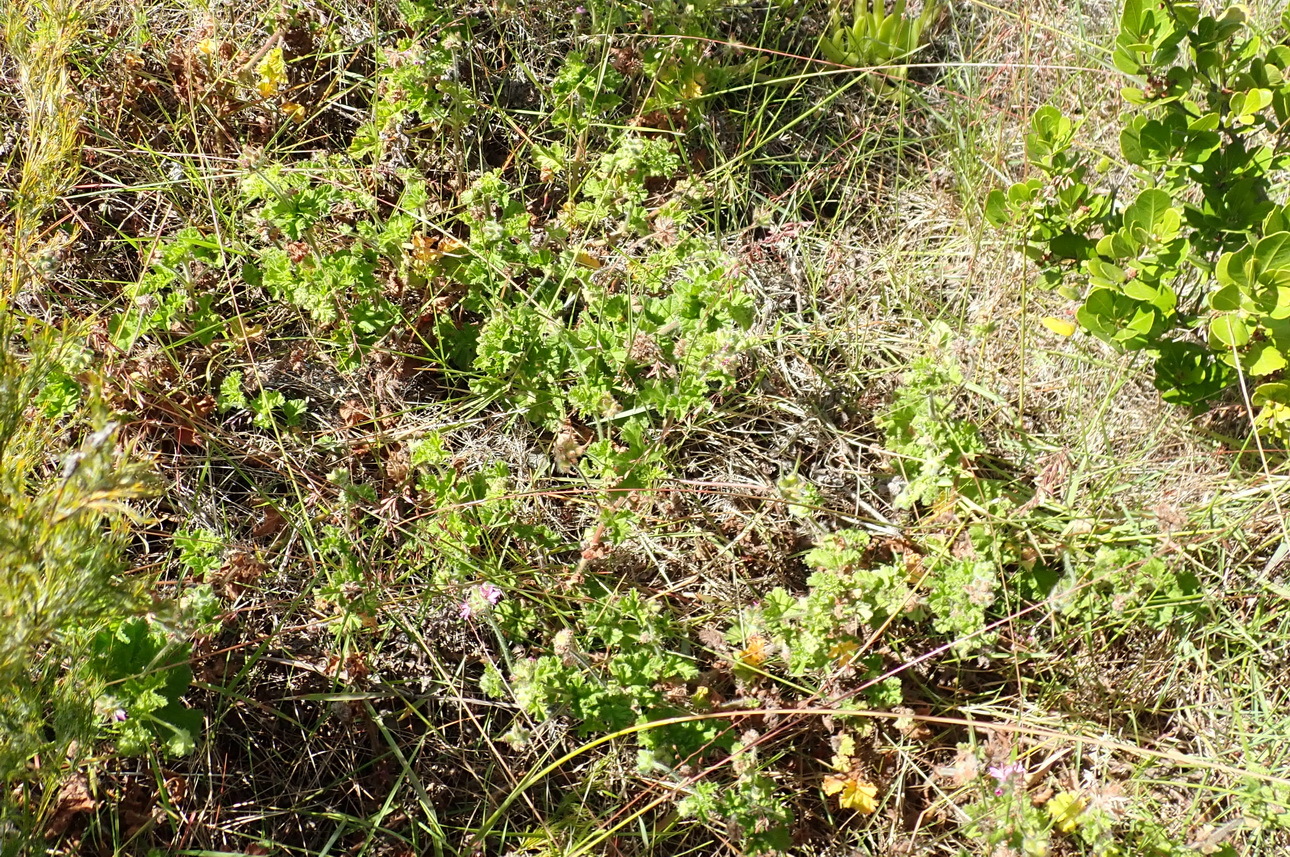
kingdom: Plantae
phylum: Tracheophyta
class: Magnoliopsida
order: Geraniales
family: Geraniaceae
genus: Pelargonium
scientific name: Pelargonium capitatum
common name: Rose scented geranium
